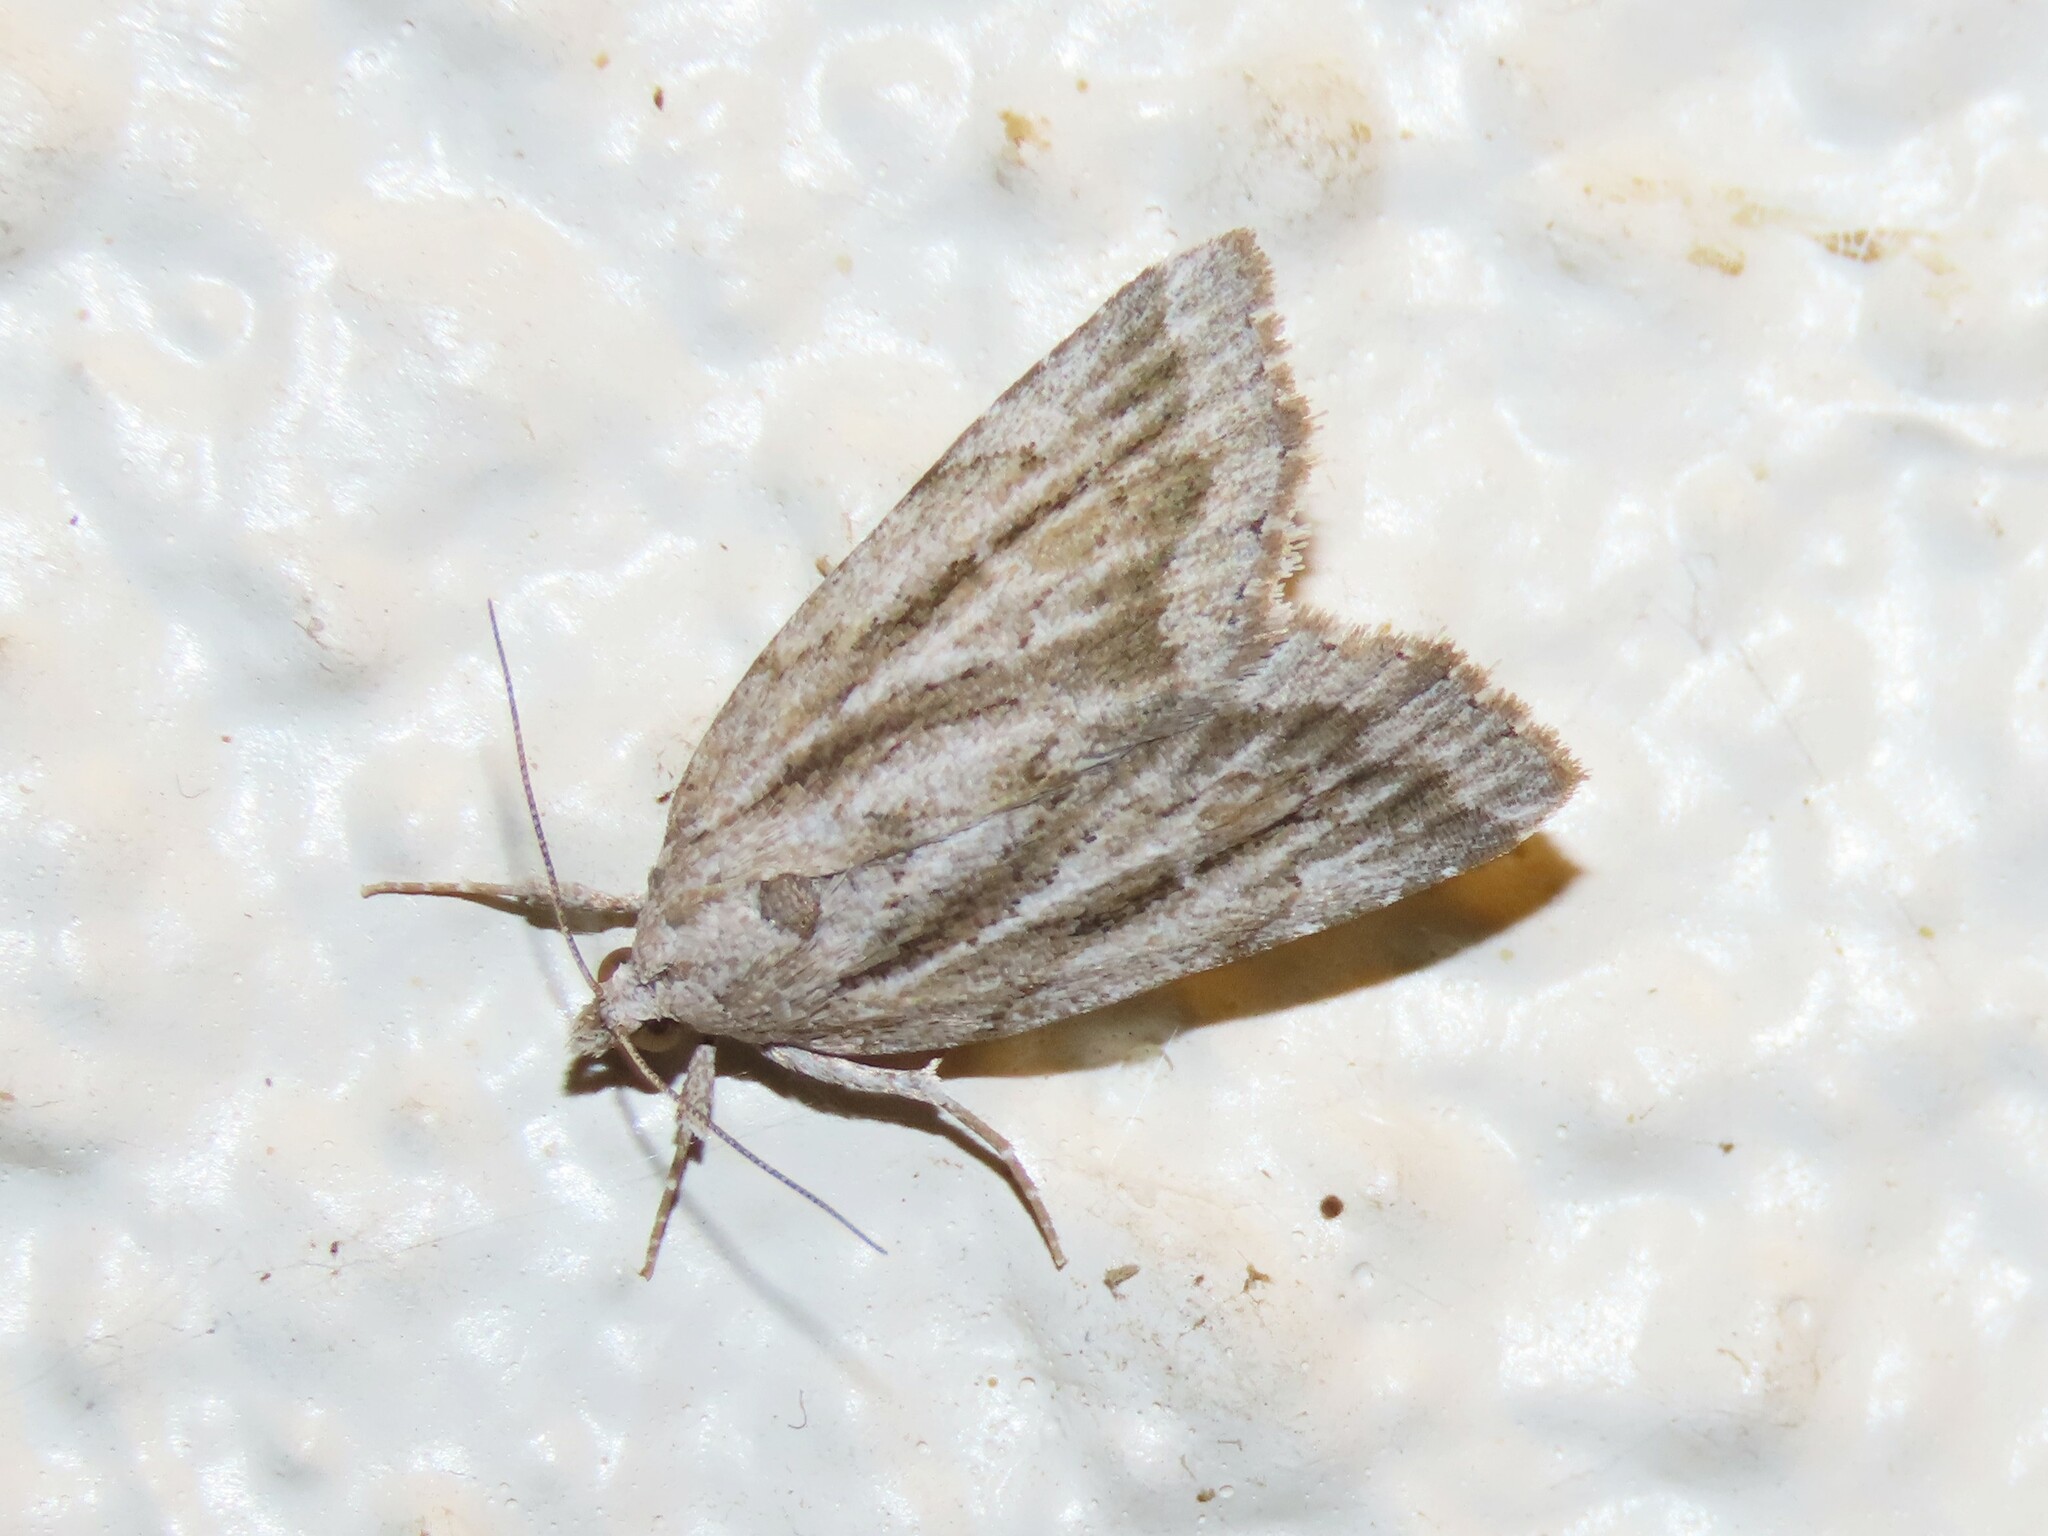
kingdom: Animalia
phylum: Arthropoda
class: Insecta
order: Lepidoptera
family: Erebidae
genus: Cutina
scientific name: Cutina albopunctella
